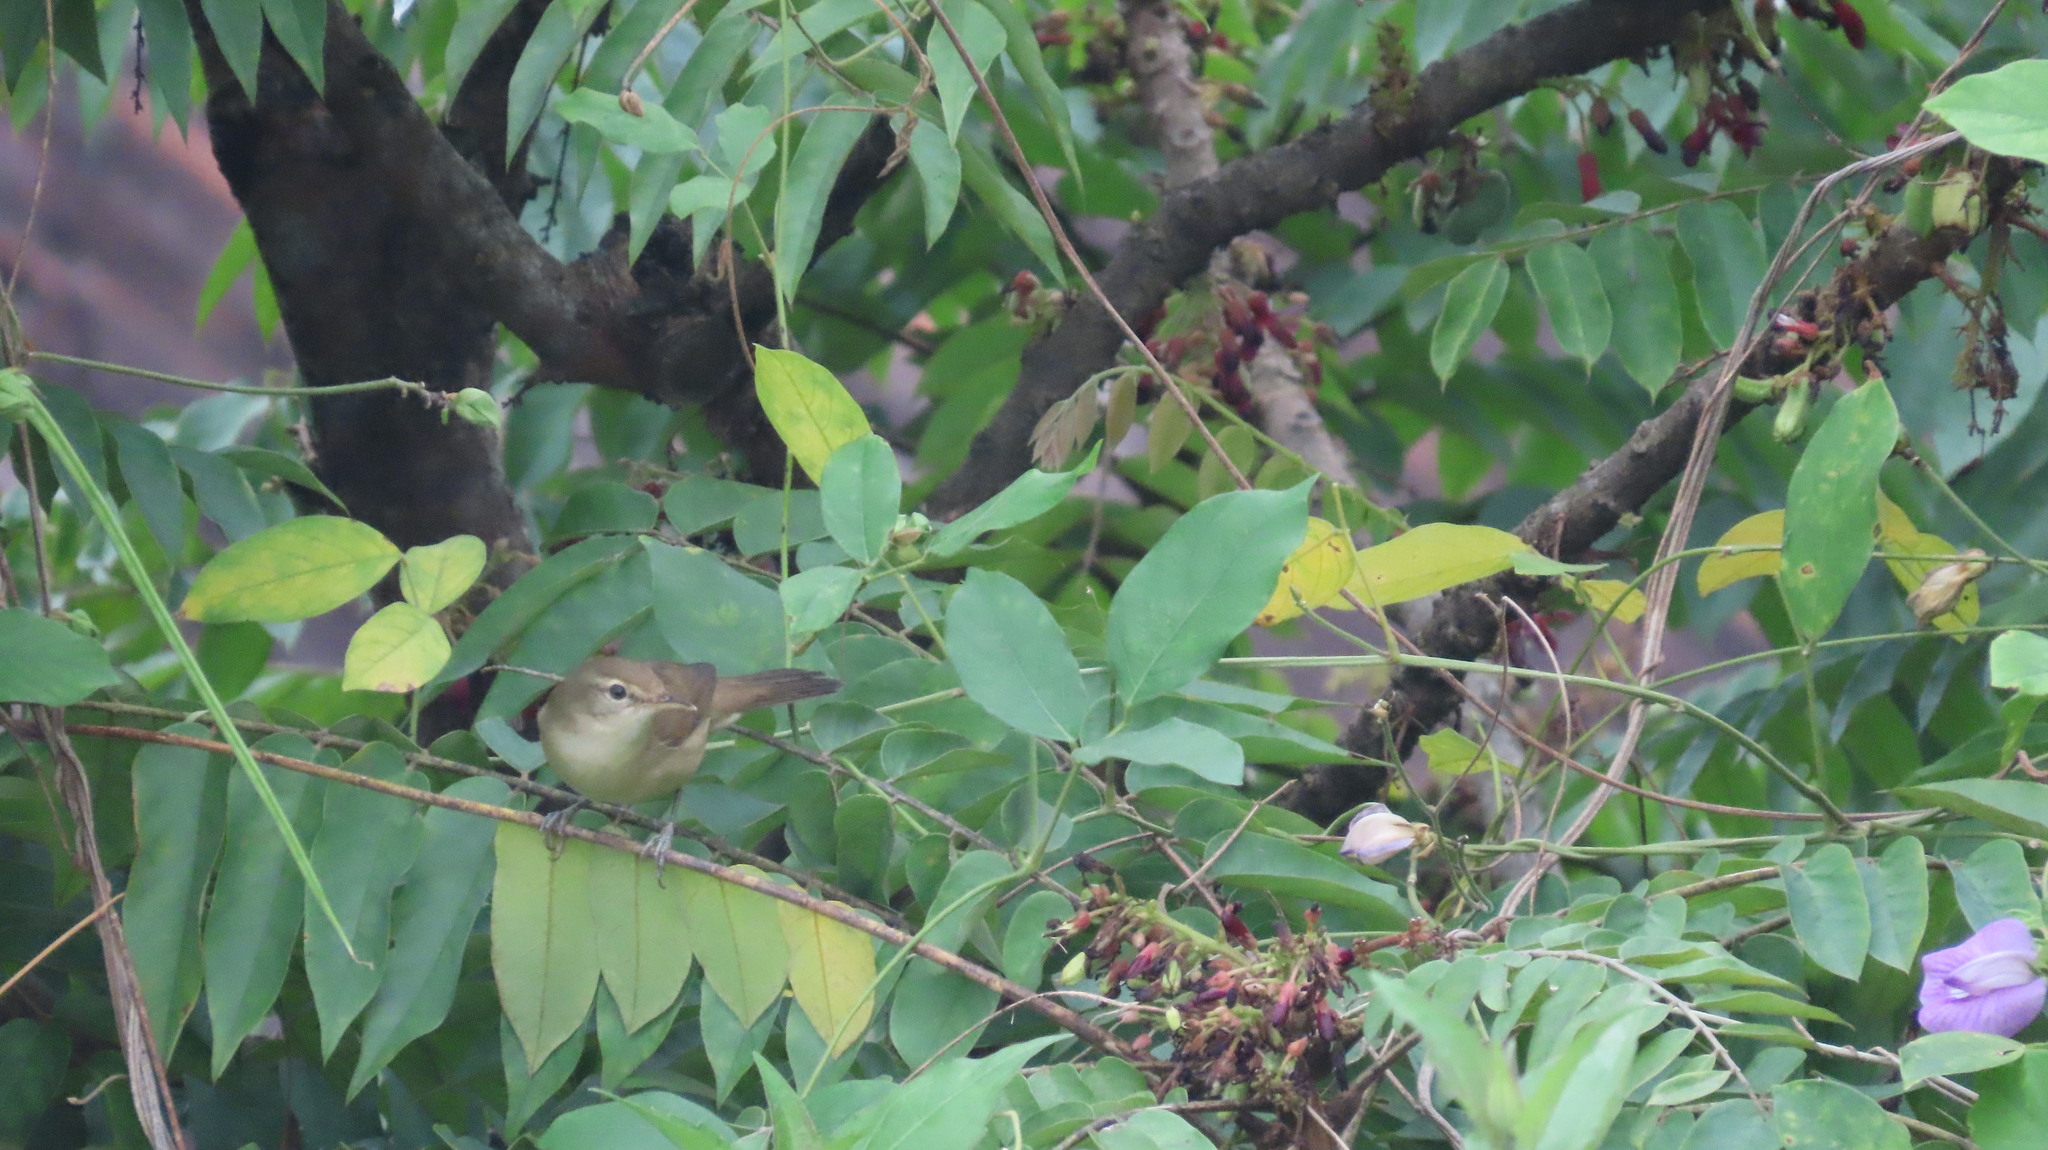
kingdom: Animalia
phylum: Chordata
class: Aves
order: Passeriformes
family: Acrocephalidae
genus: Acrocephalus
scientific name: Acrocephalus dumetorum
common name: Blyth's reed warbler
